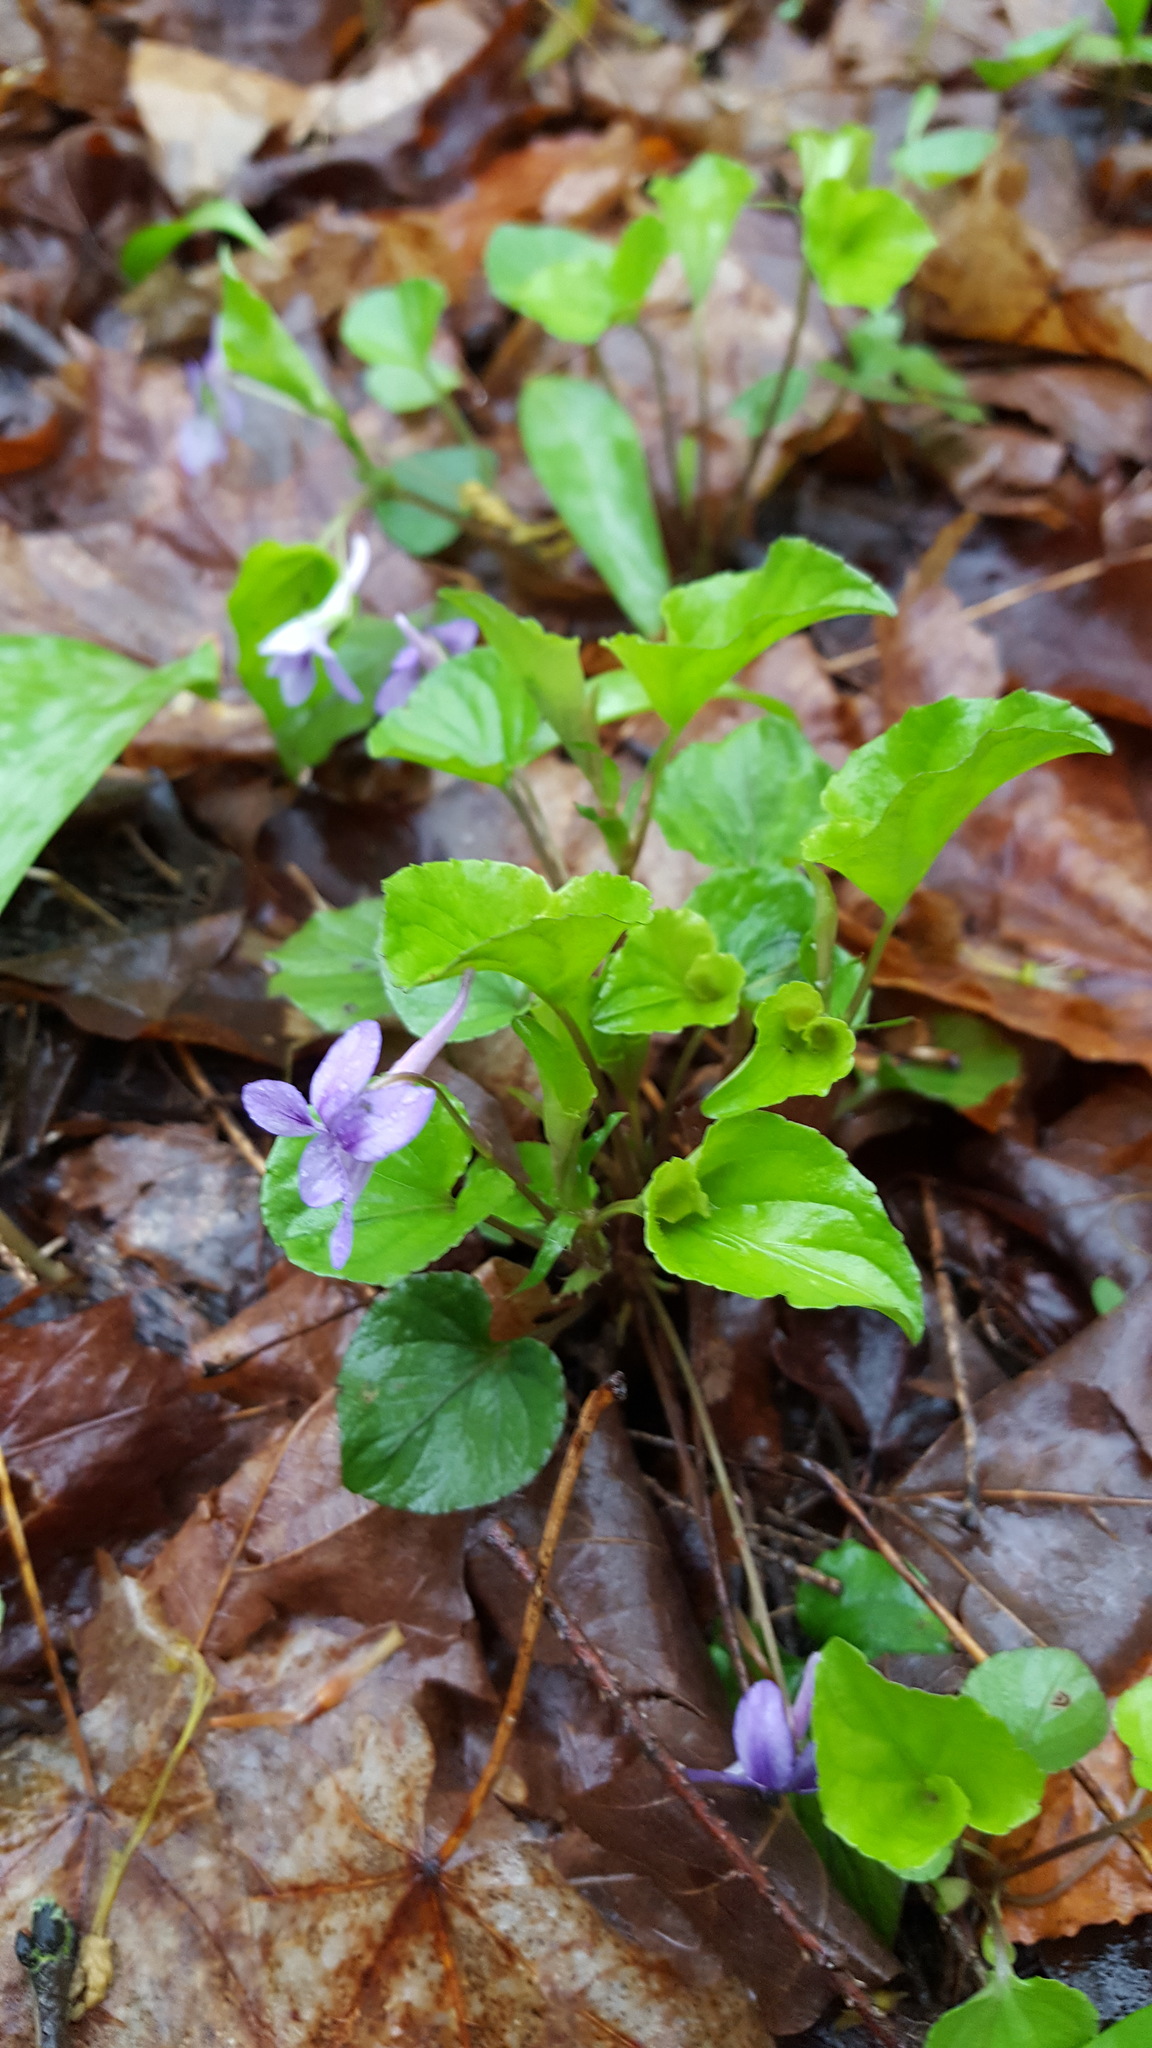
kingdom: Plantae
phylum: Tracheophyta
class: Magnoliopsida
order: Malpighiales
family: Violaceae
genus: Viola
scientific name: Viola rostrata
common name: Long-spur violet
